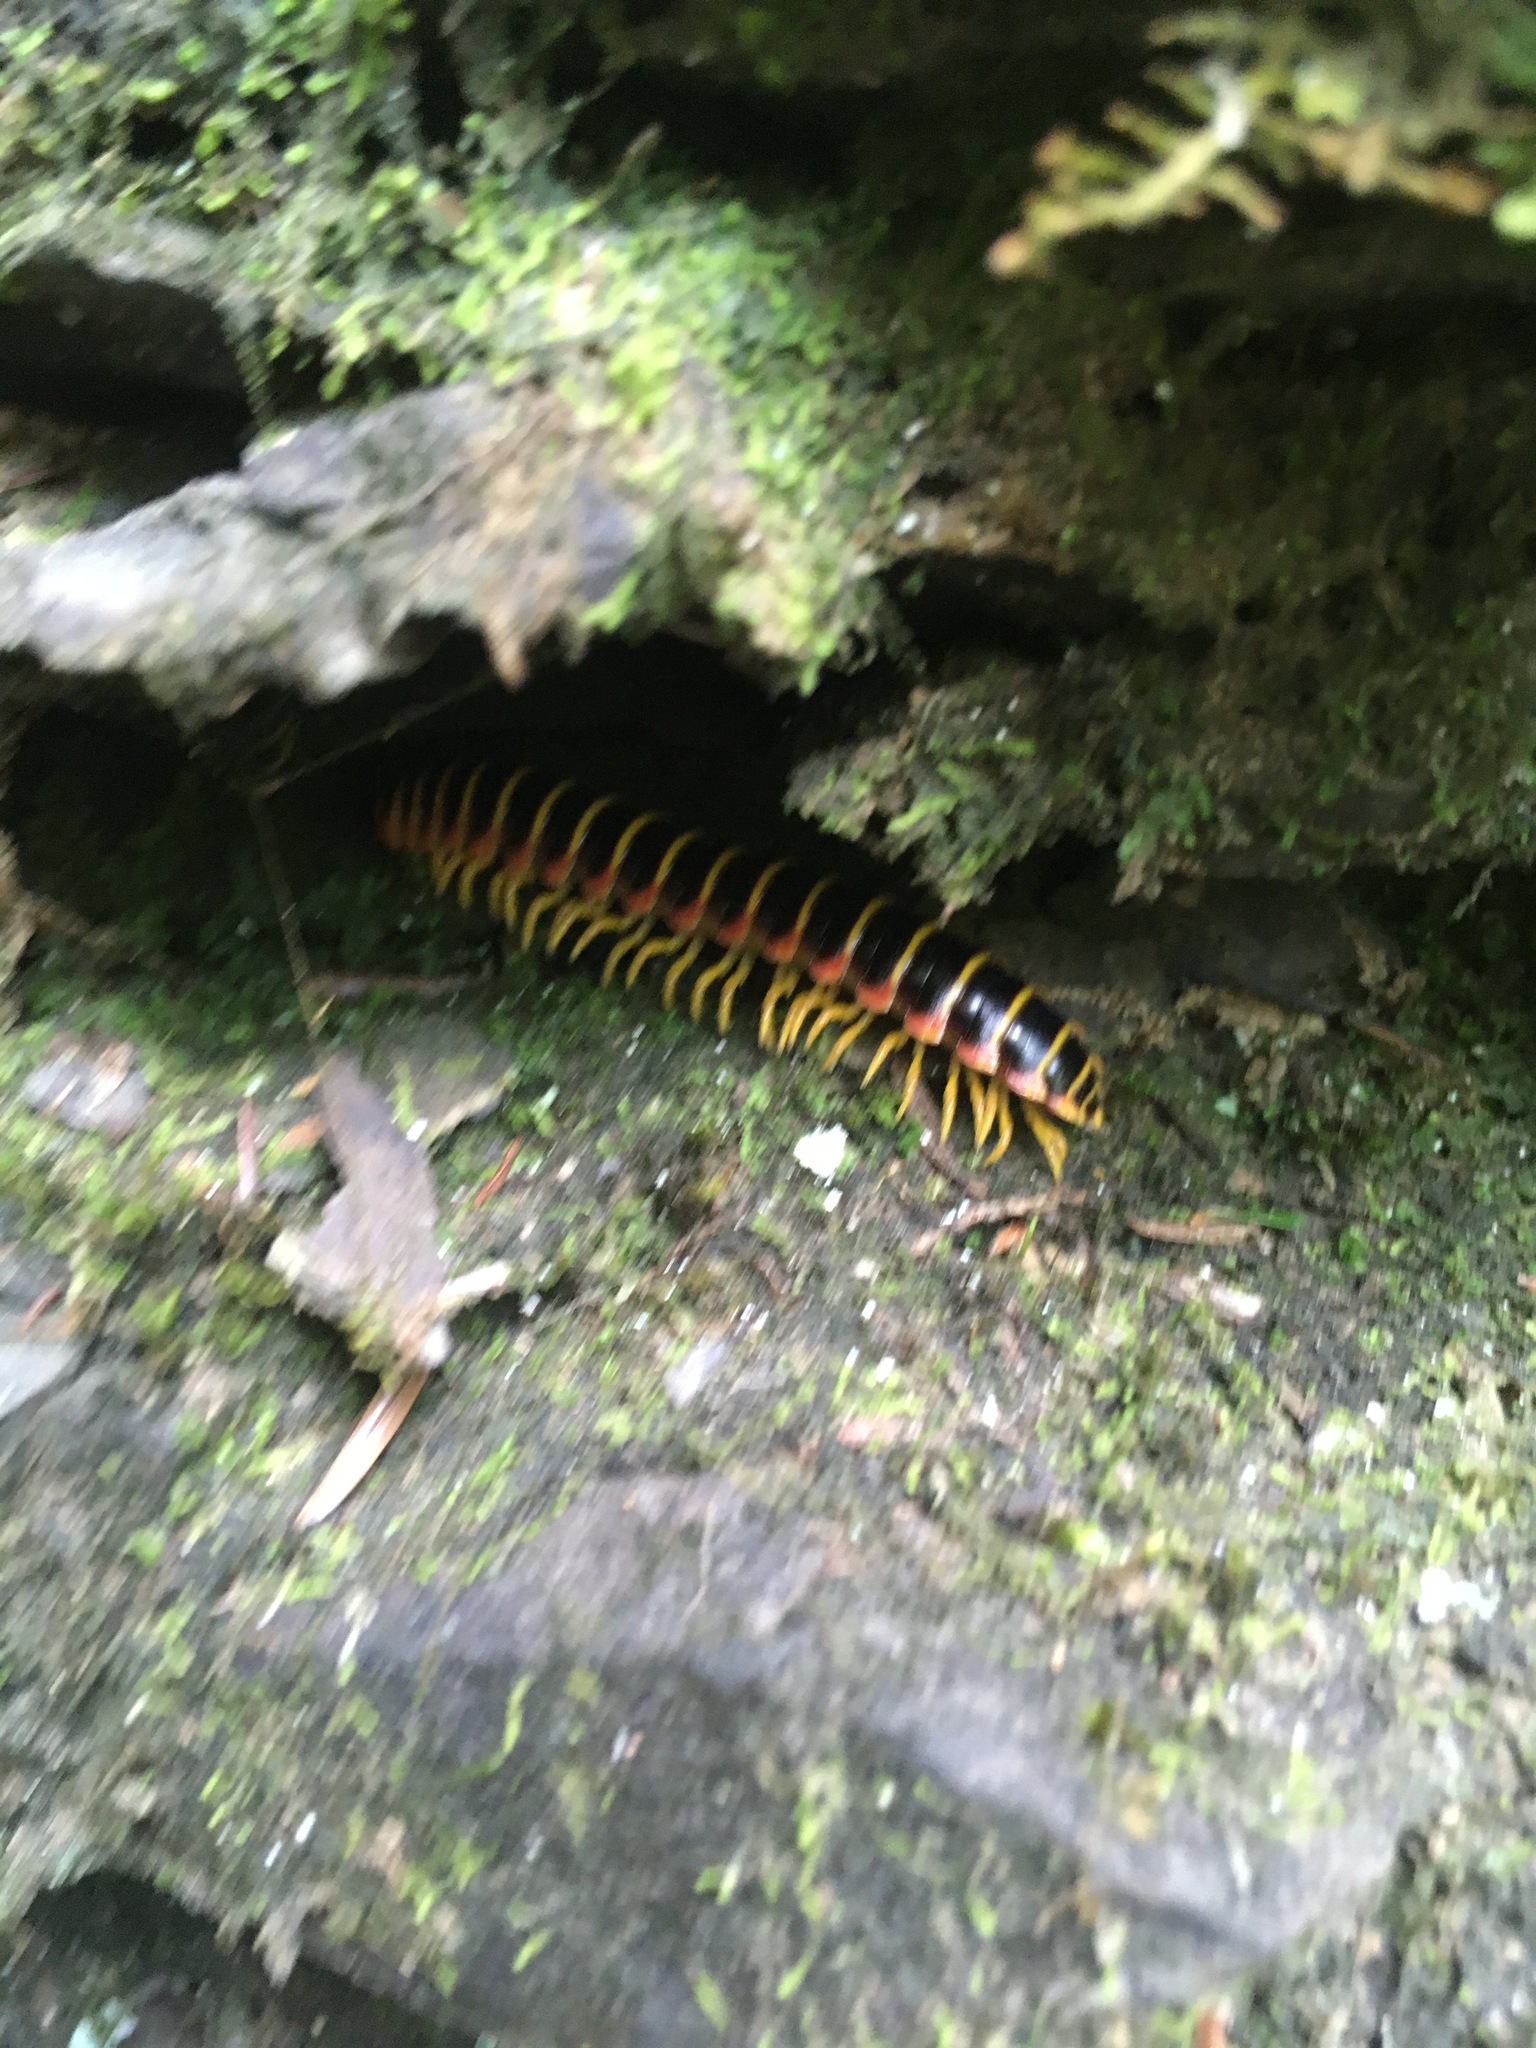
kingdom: Animalia
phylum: Arthropoda
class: Diplopoda
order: Polydesmida
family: Xystodesmidae
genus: Apheloria
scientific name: Apheloria virginiensis
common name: Black-and-gold flat millipede
